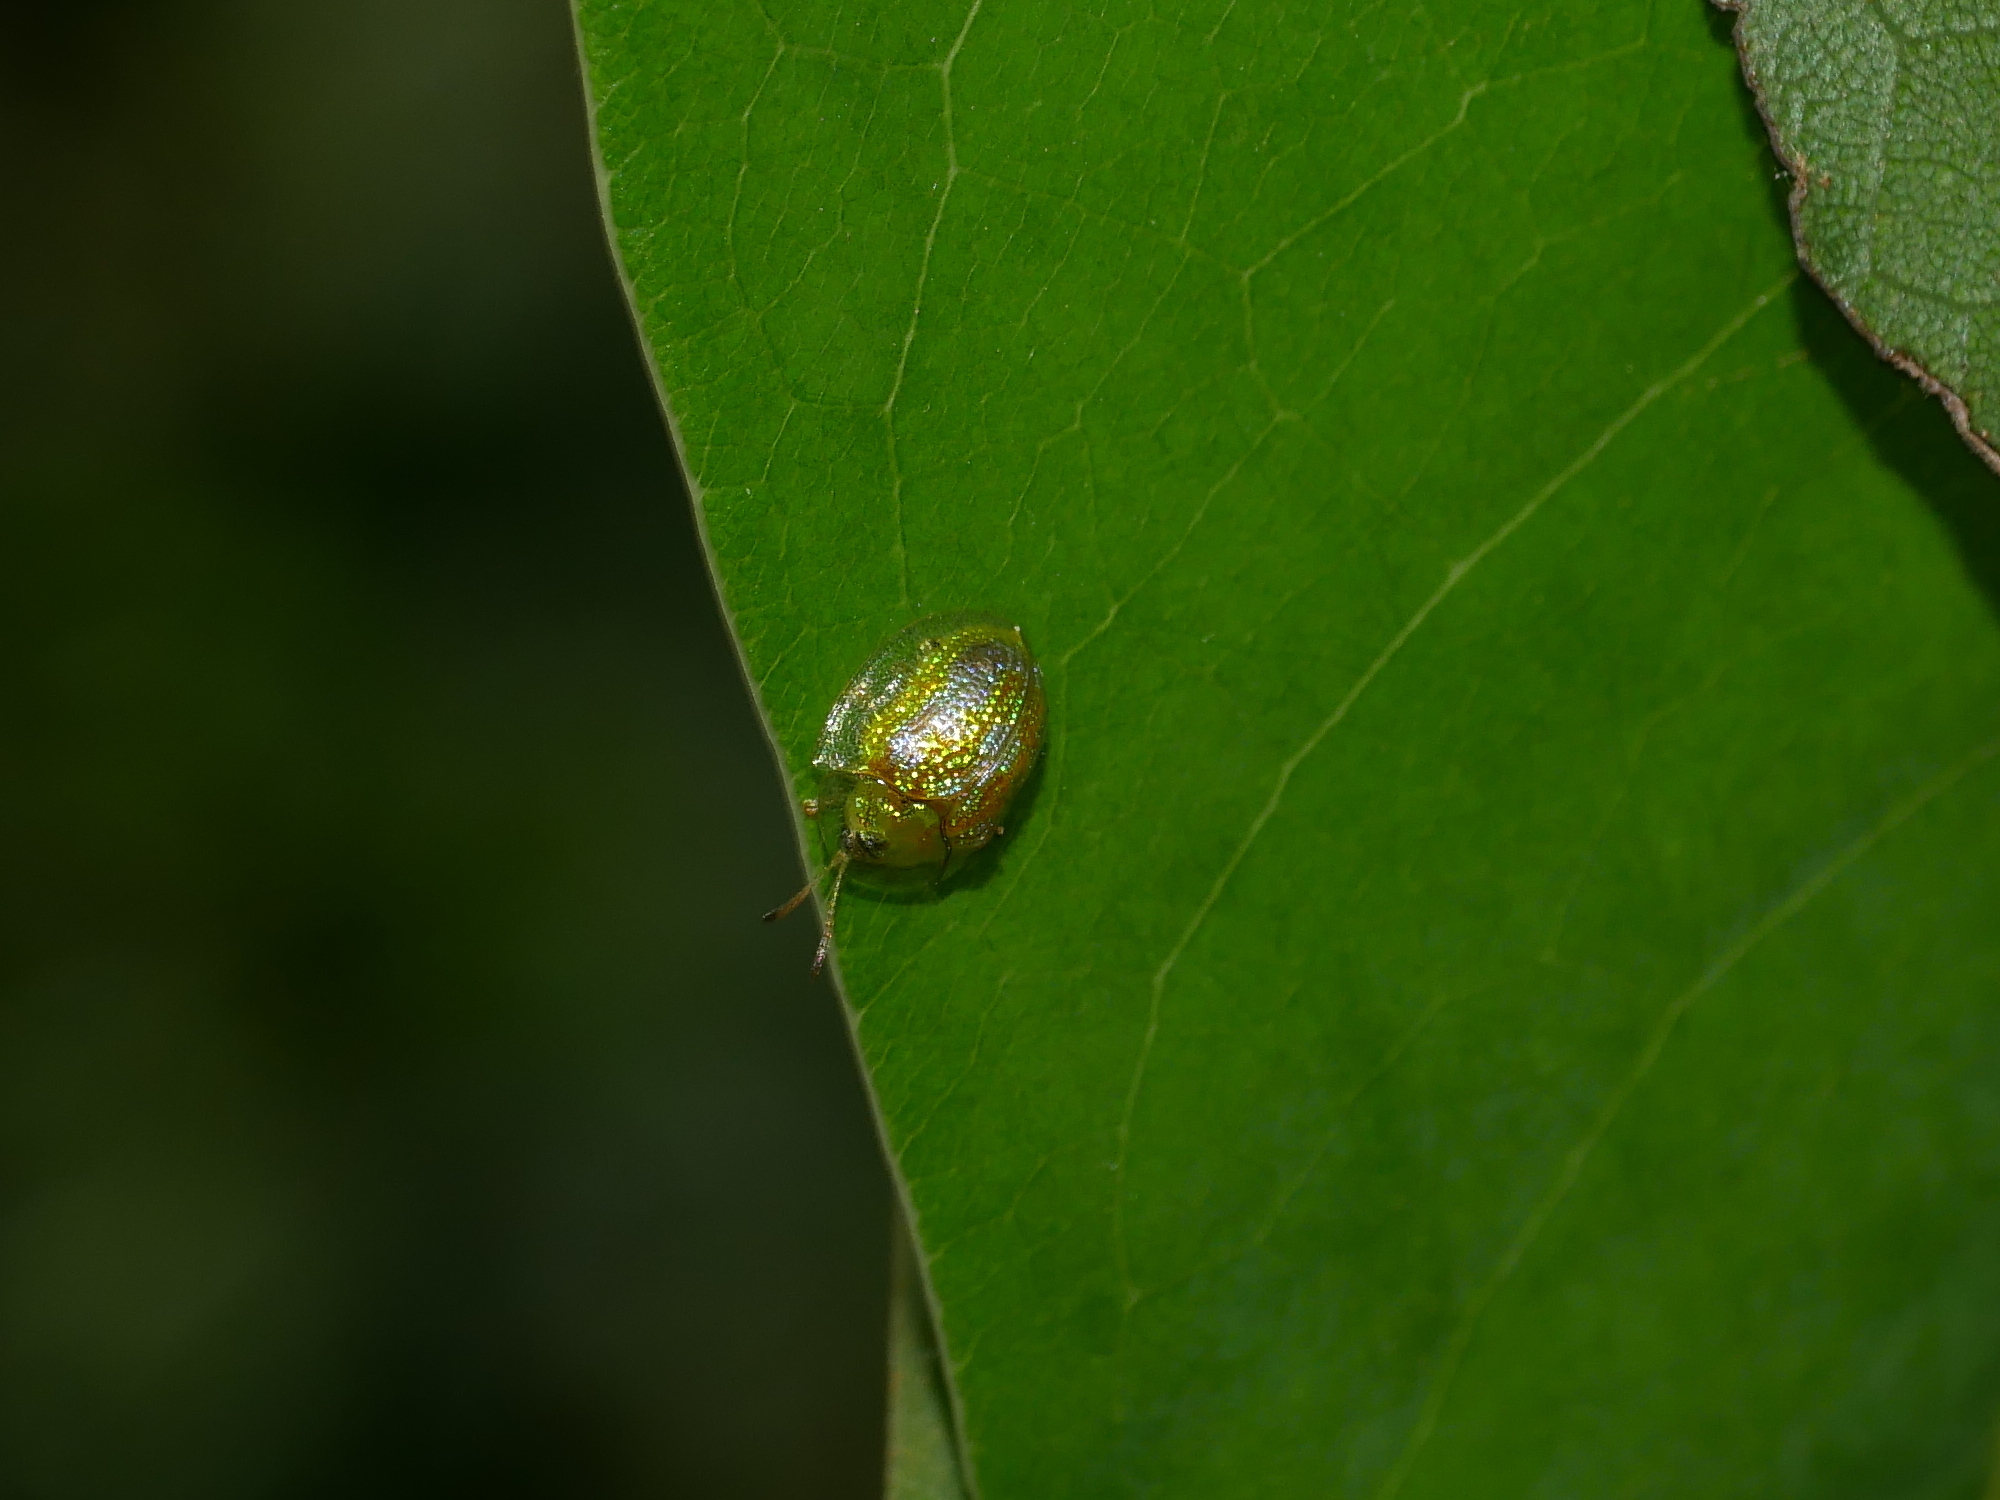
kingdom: Animalia
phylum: Arthropoda
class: Insecta
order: Coleoptera
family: Chrysomelidae
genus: Cassida
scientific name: Cassida circumdata
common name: Tortoise beetle
